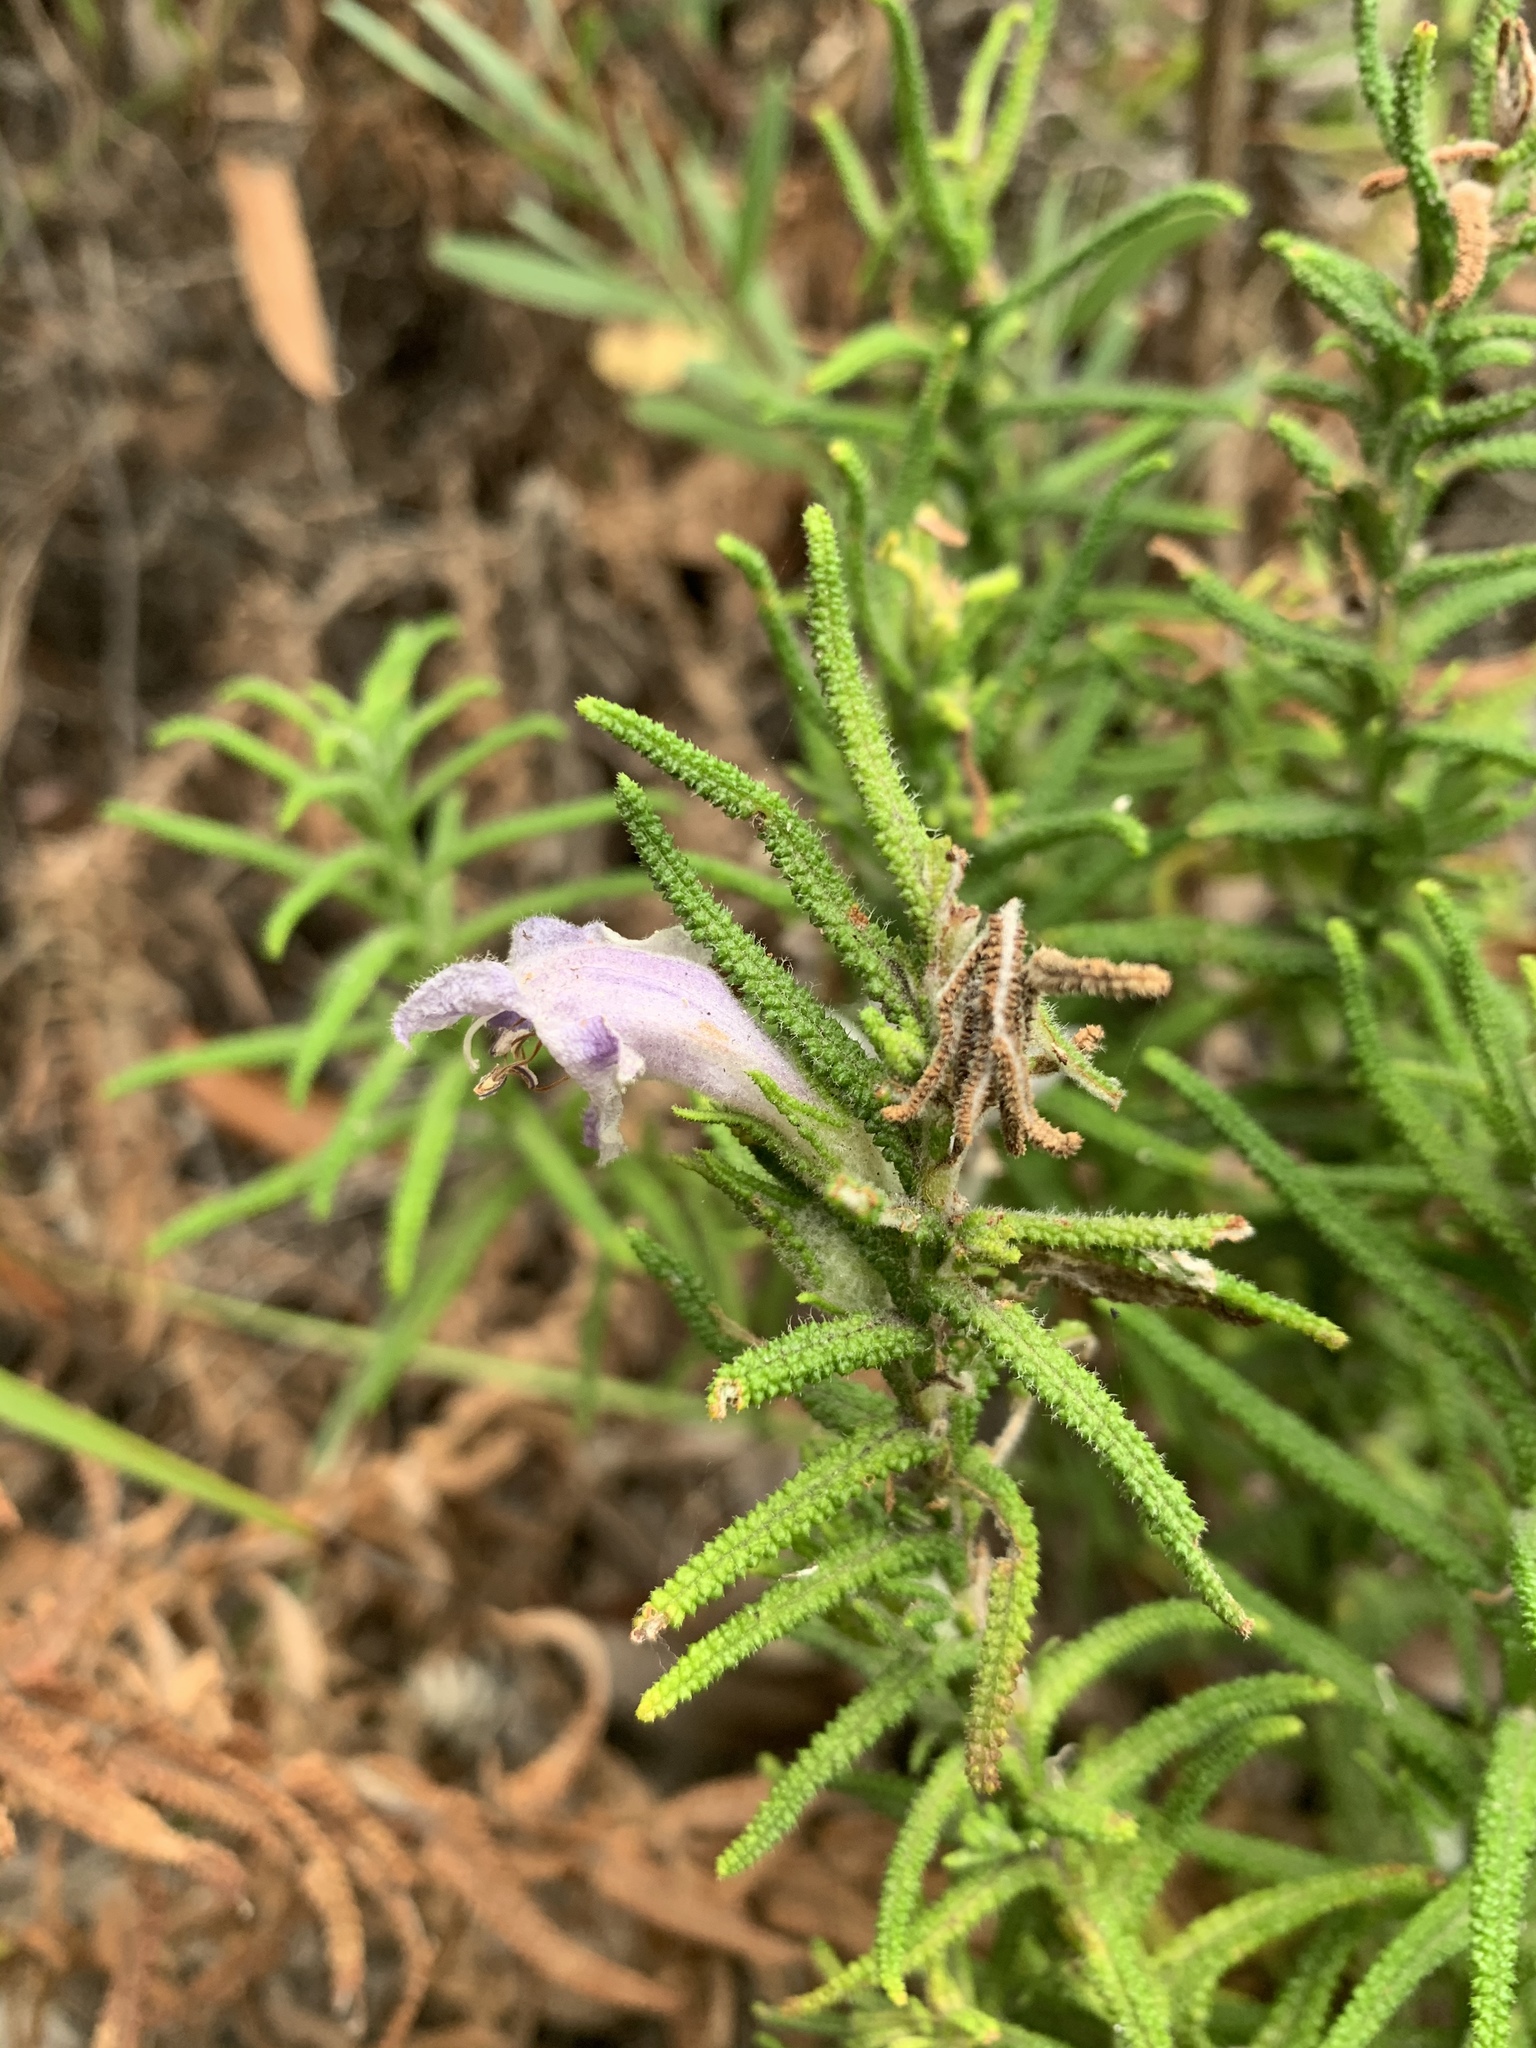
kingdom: Plantae
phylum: Tracheophyta
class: Magnoliopsida
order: Lamiales
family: Lamiaceae
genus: Chloanthes
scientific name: Chloanthes stoechadis
